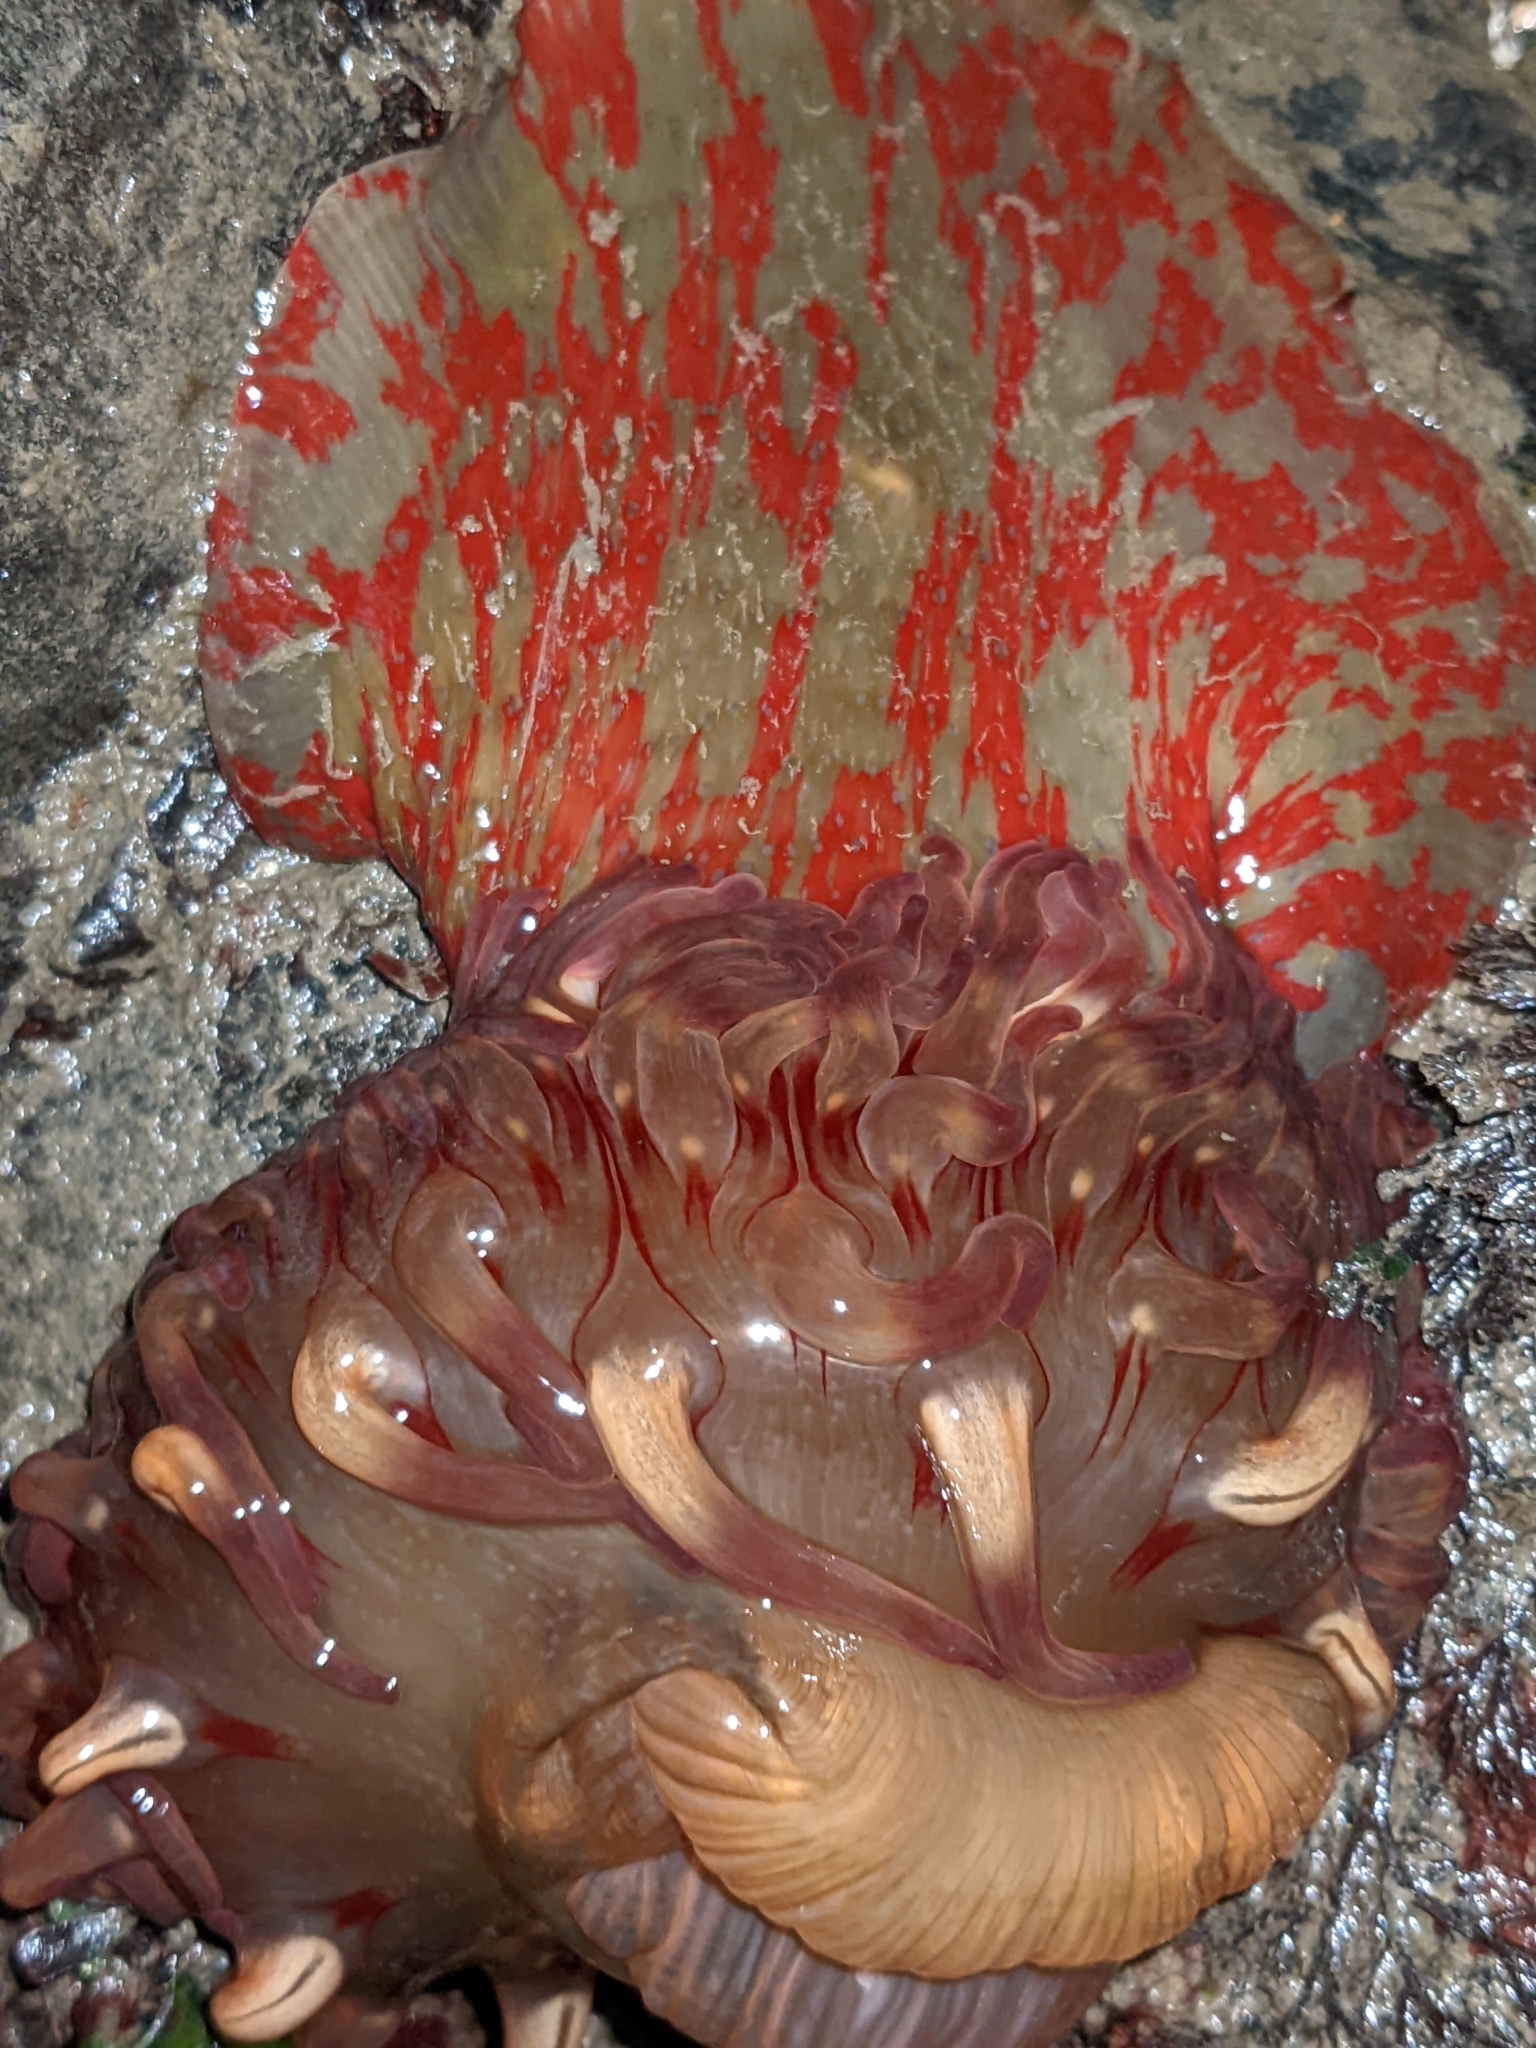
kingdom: Animalia
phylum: Cnidaria
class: Anthozoa
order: Actiniaria
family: Actiniidae
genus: Urticina
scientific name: Urticina grebelnyi
